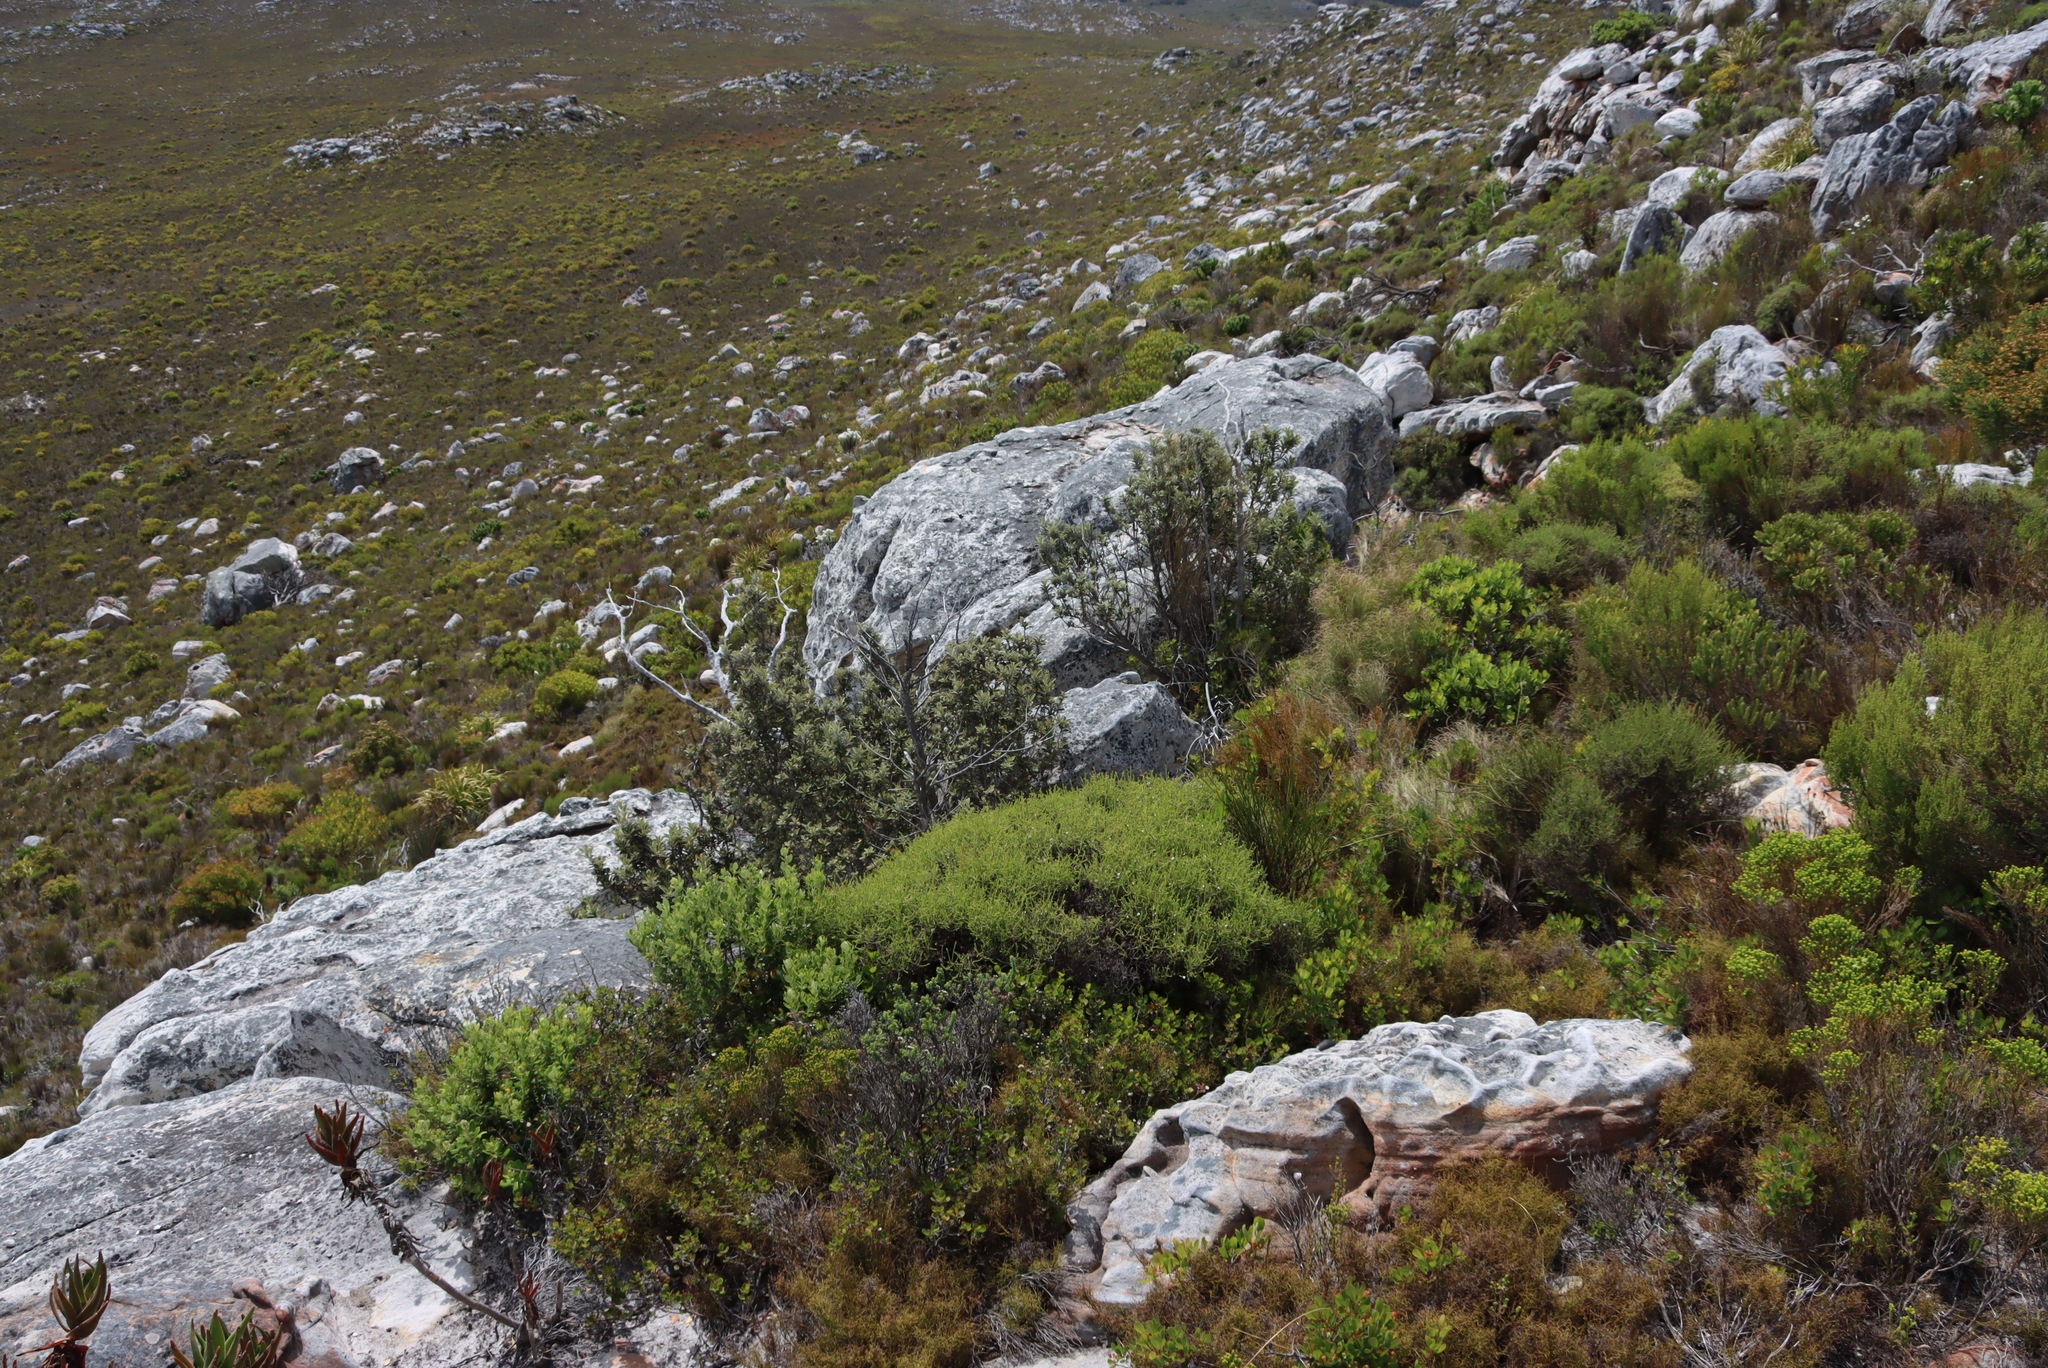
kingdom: Plantae
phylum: Tracheophyta
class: Magnoliopsida
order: Asterales
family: Asteraceae
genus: Tarchonanthus
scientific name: Tarchonanthus littoralis
